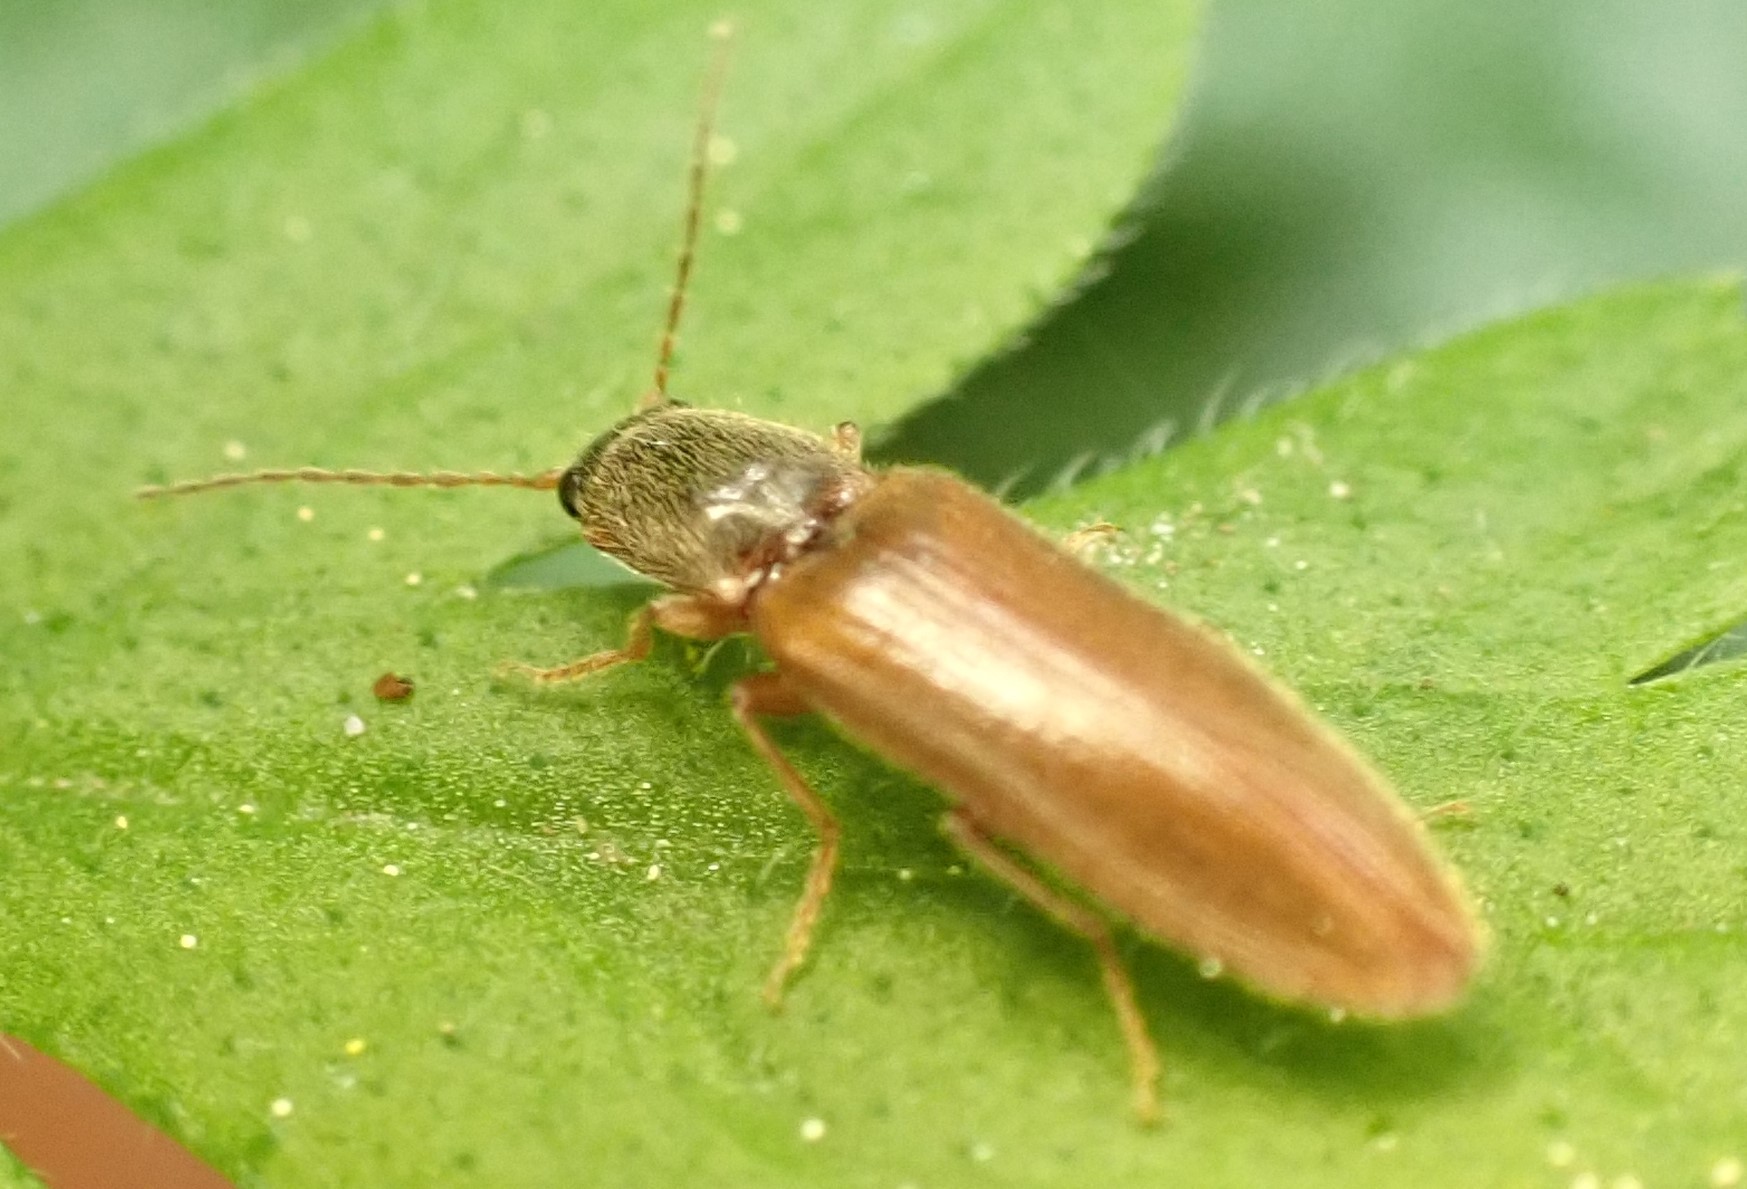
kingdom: Animalia
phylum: Arthropoda
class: Insecta
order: Coleoptera
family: Elateridae
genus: Athous
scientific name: Athous subfuscus
